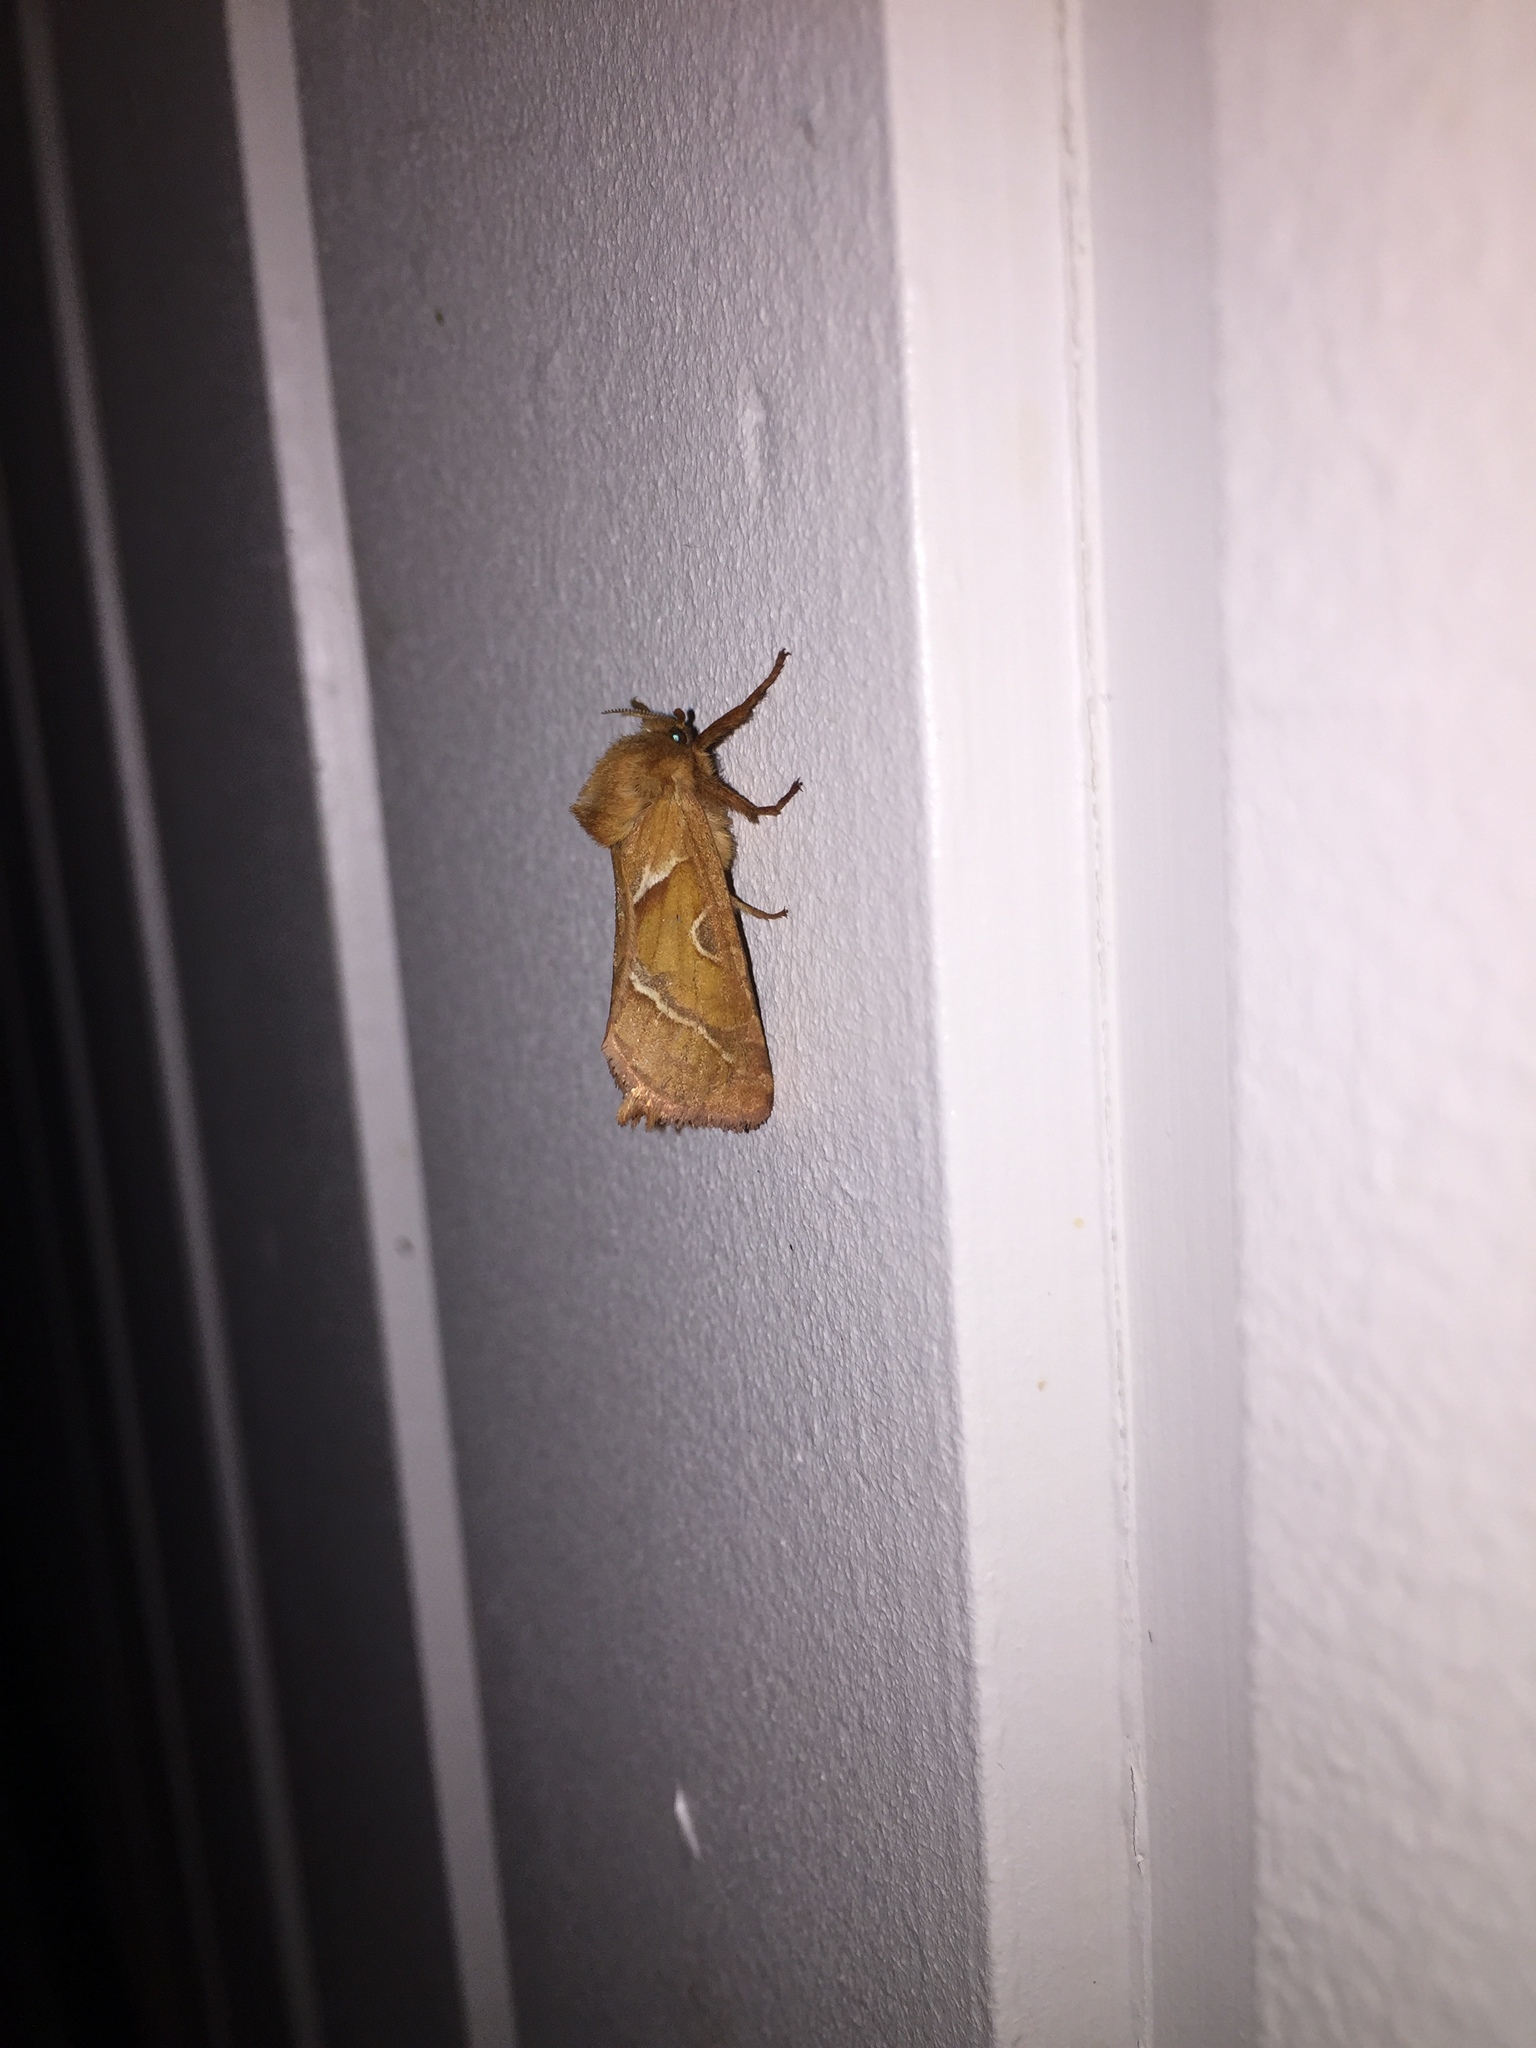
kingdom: Animalia
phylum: Arthropoda
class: Insecta
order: Lepidoptera
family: Hepialidae
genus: Triodia
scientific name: Triodia sylvina
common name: Orange swift
